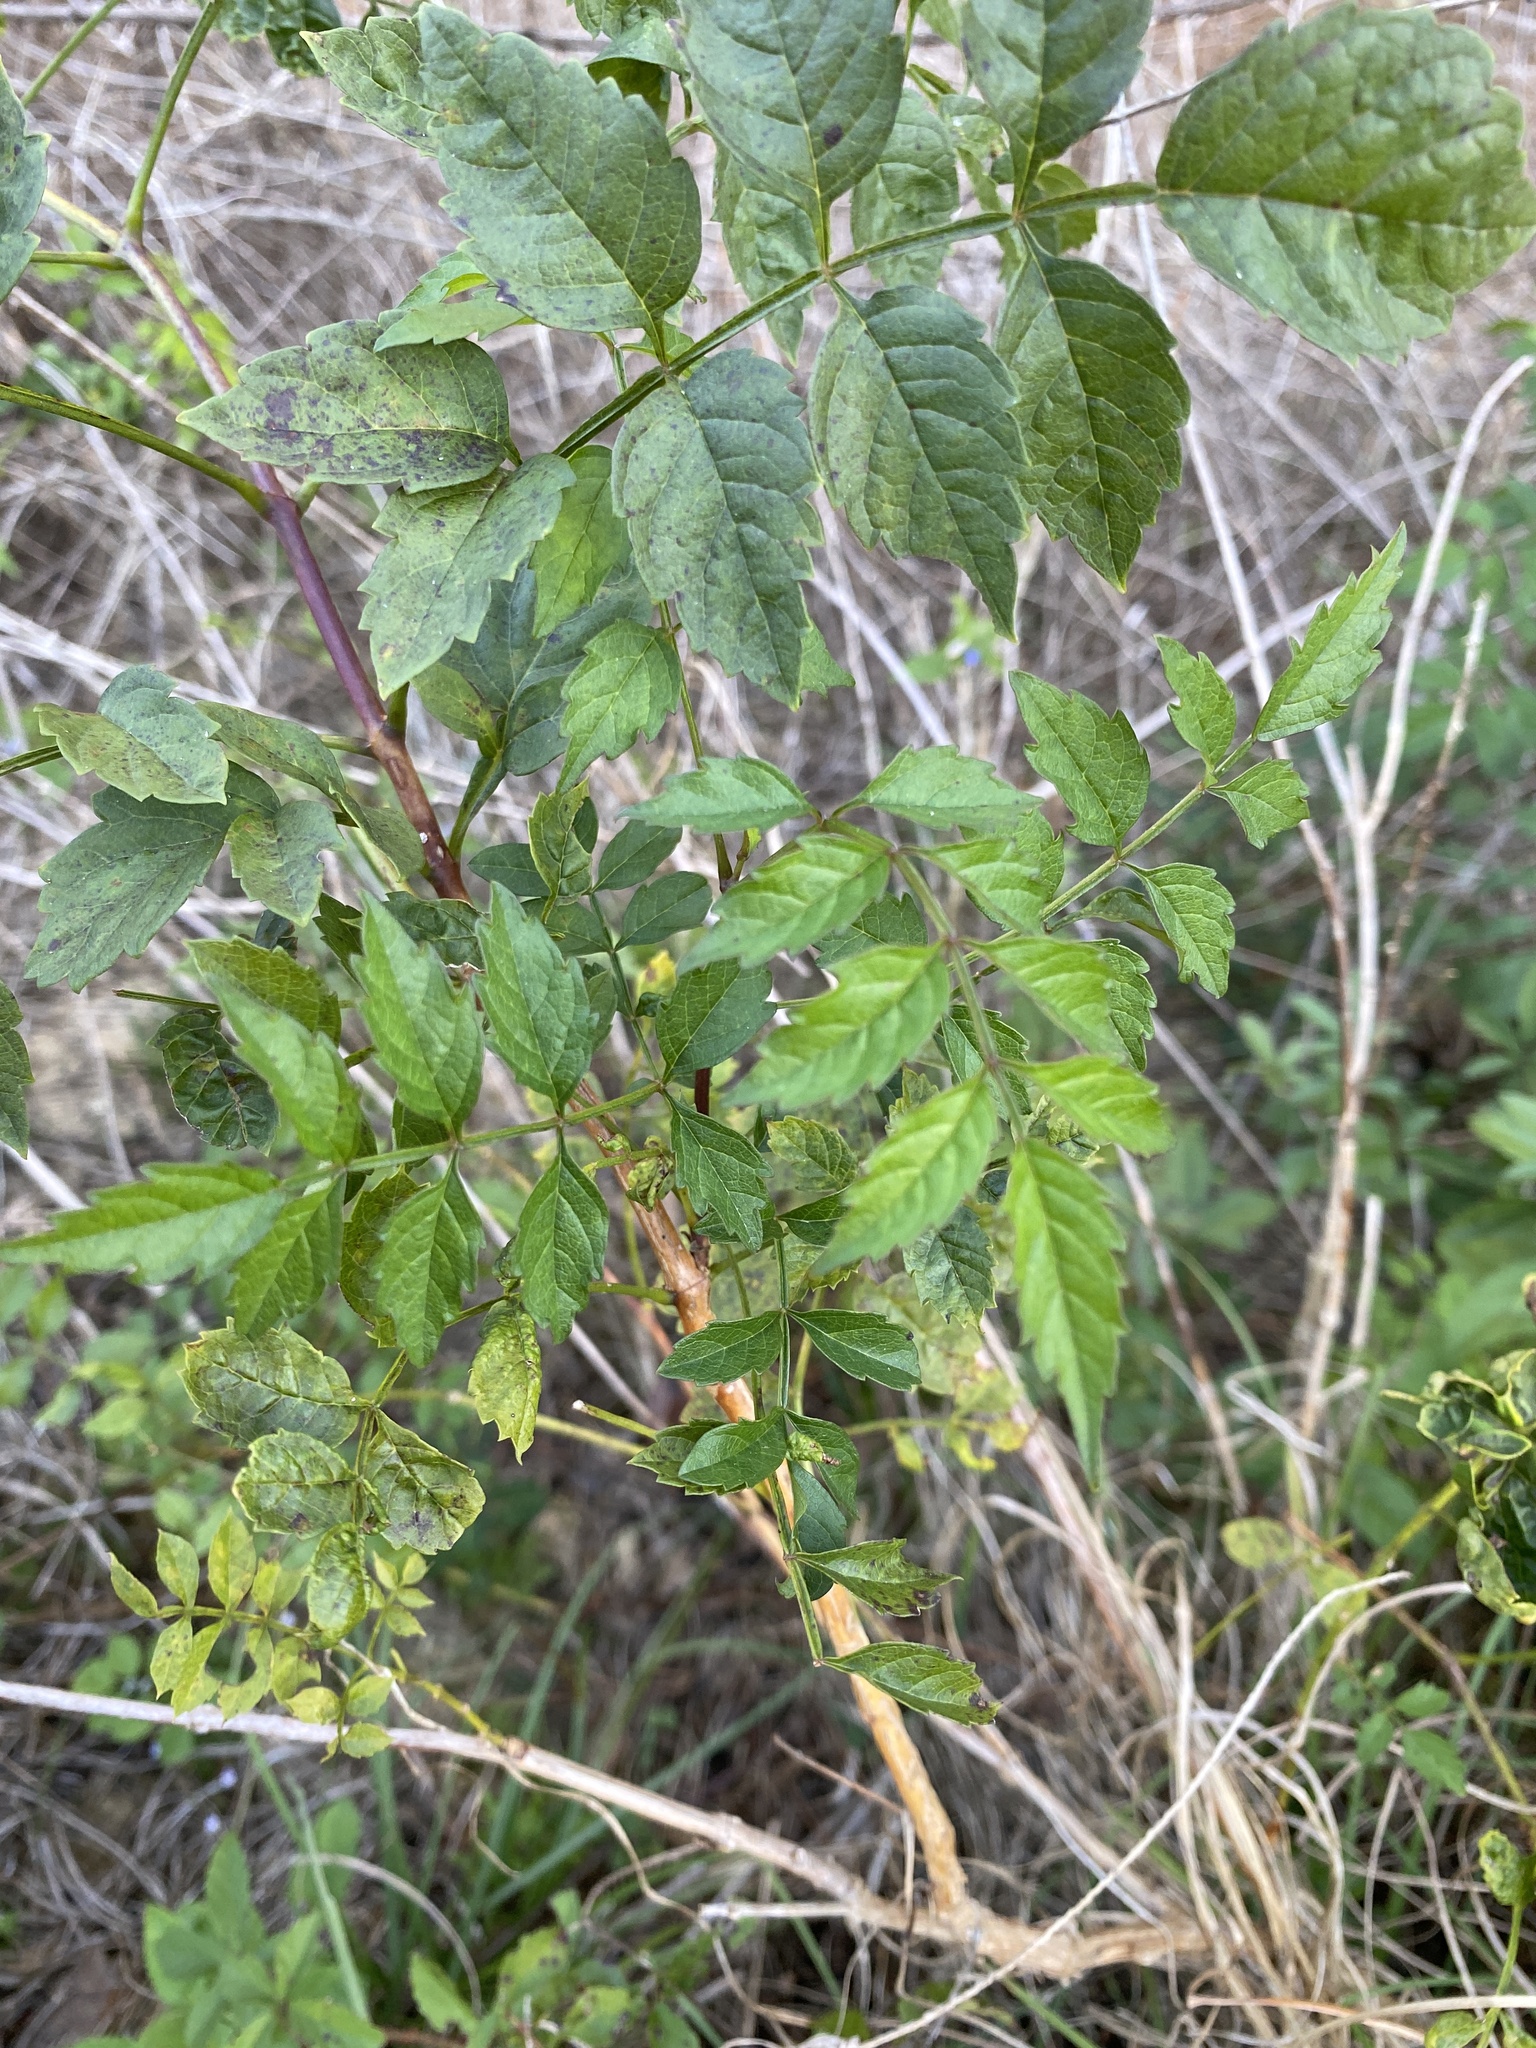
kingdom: Plantae
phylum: Tracheophyta
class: Magnoliopsida
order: Lamiales
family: Bignoniaceae
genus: Campsis
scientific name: Campsis radicans
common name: Trumpet-creeper
